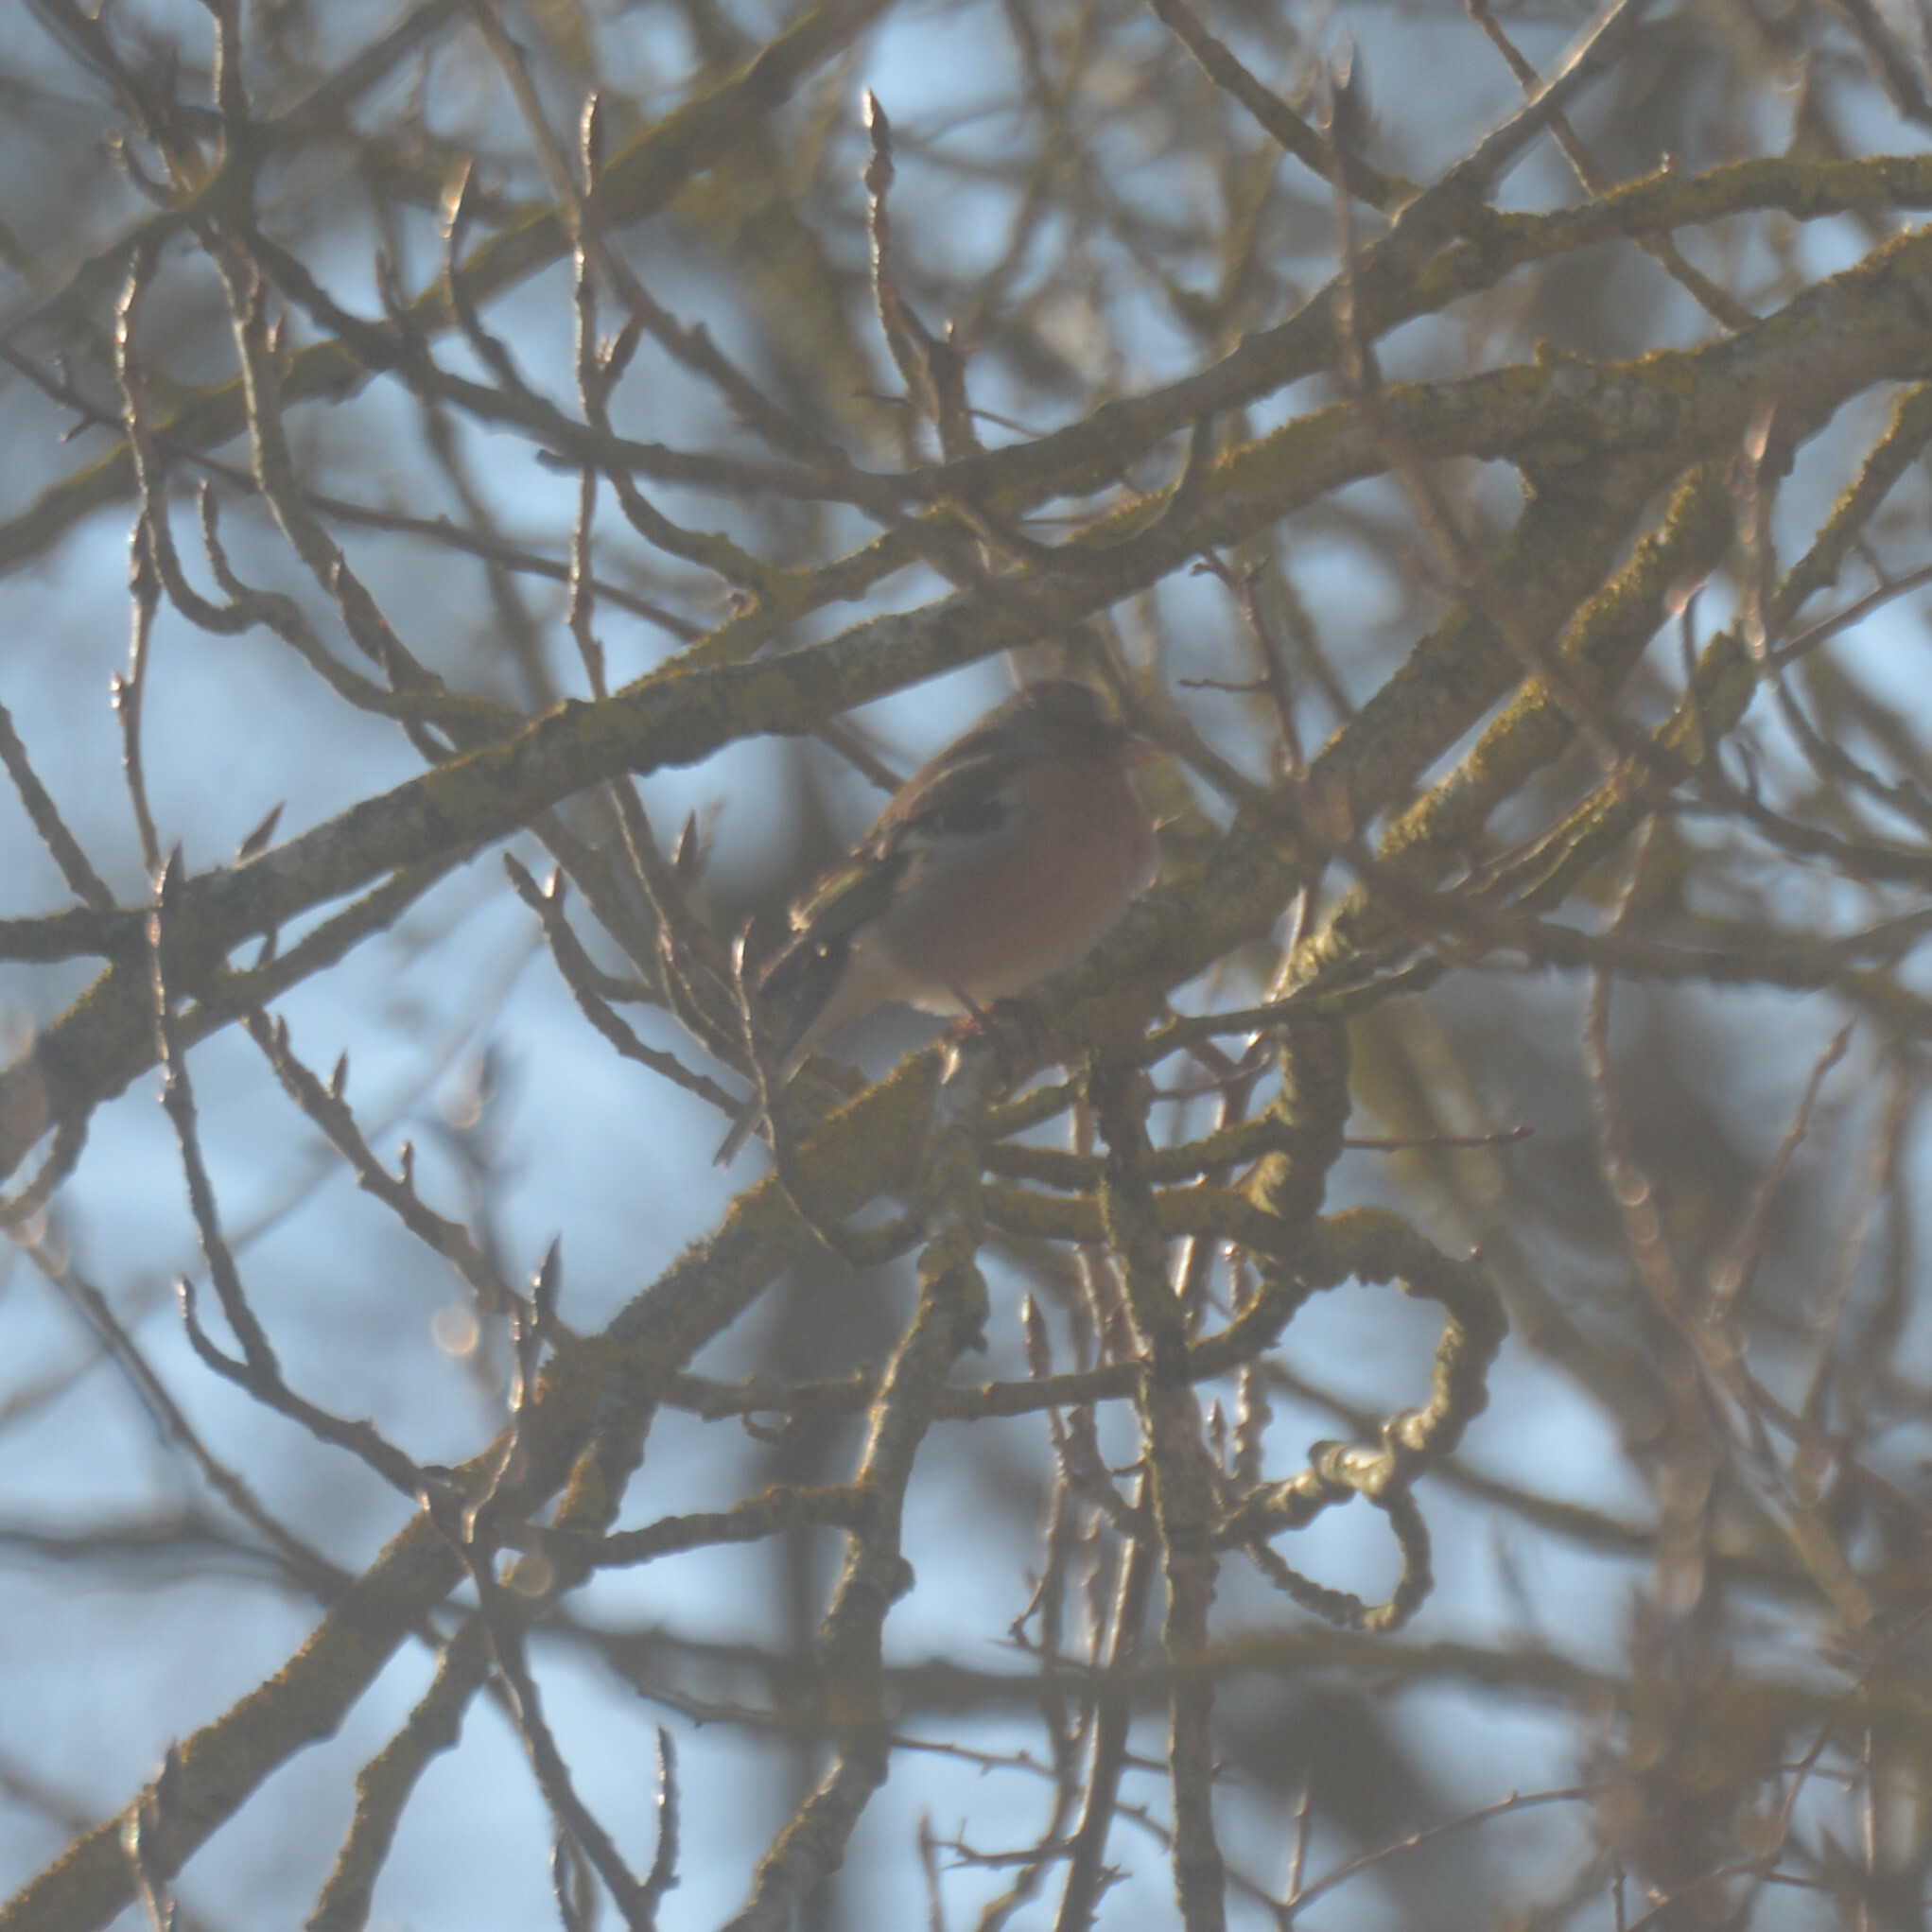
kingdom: Animalia
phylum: Chordata
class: Aves
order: Passeriformes
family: Fringillidae
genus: Fringilla
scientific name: Fringilla coelebs
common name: Common chaffinch
